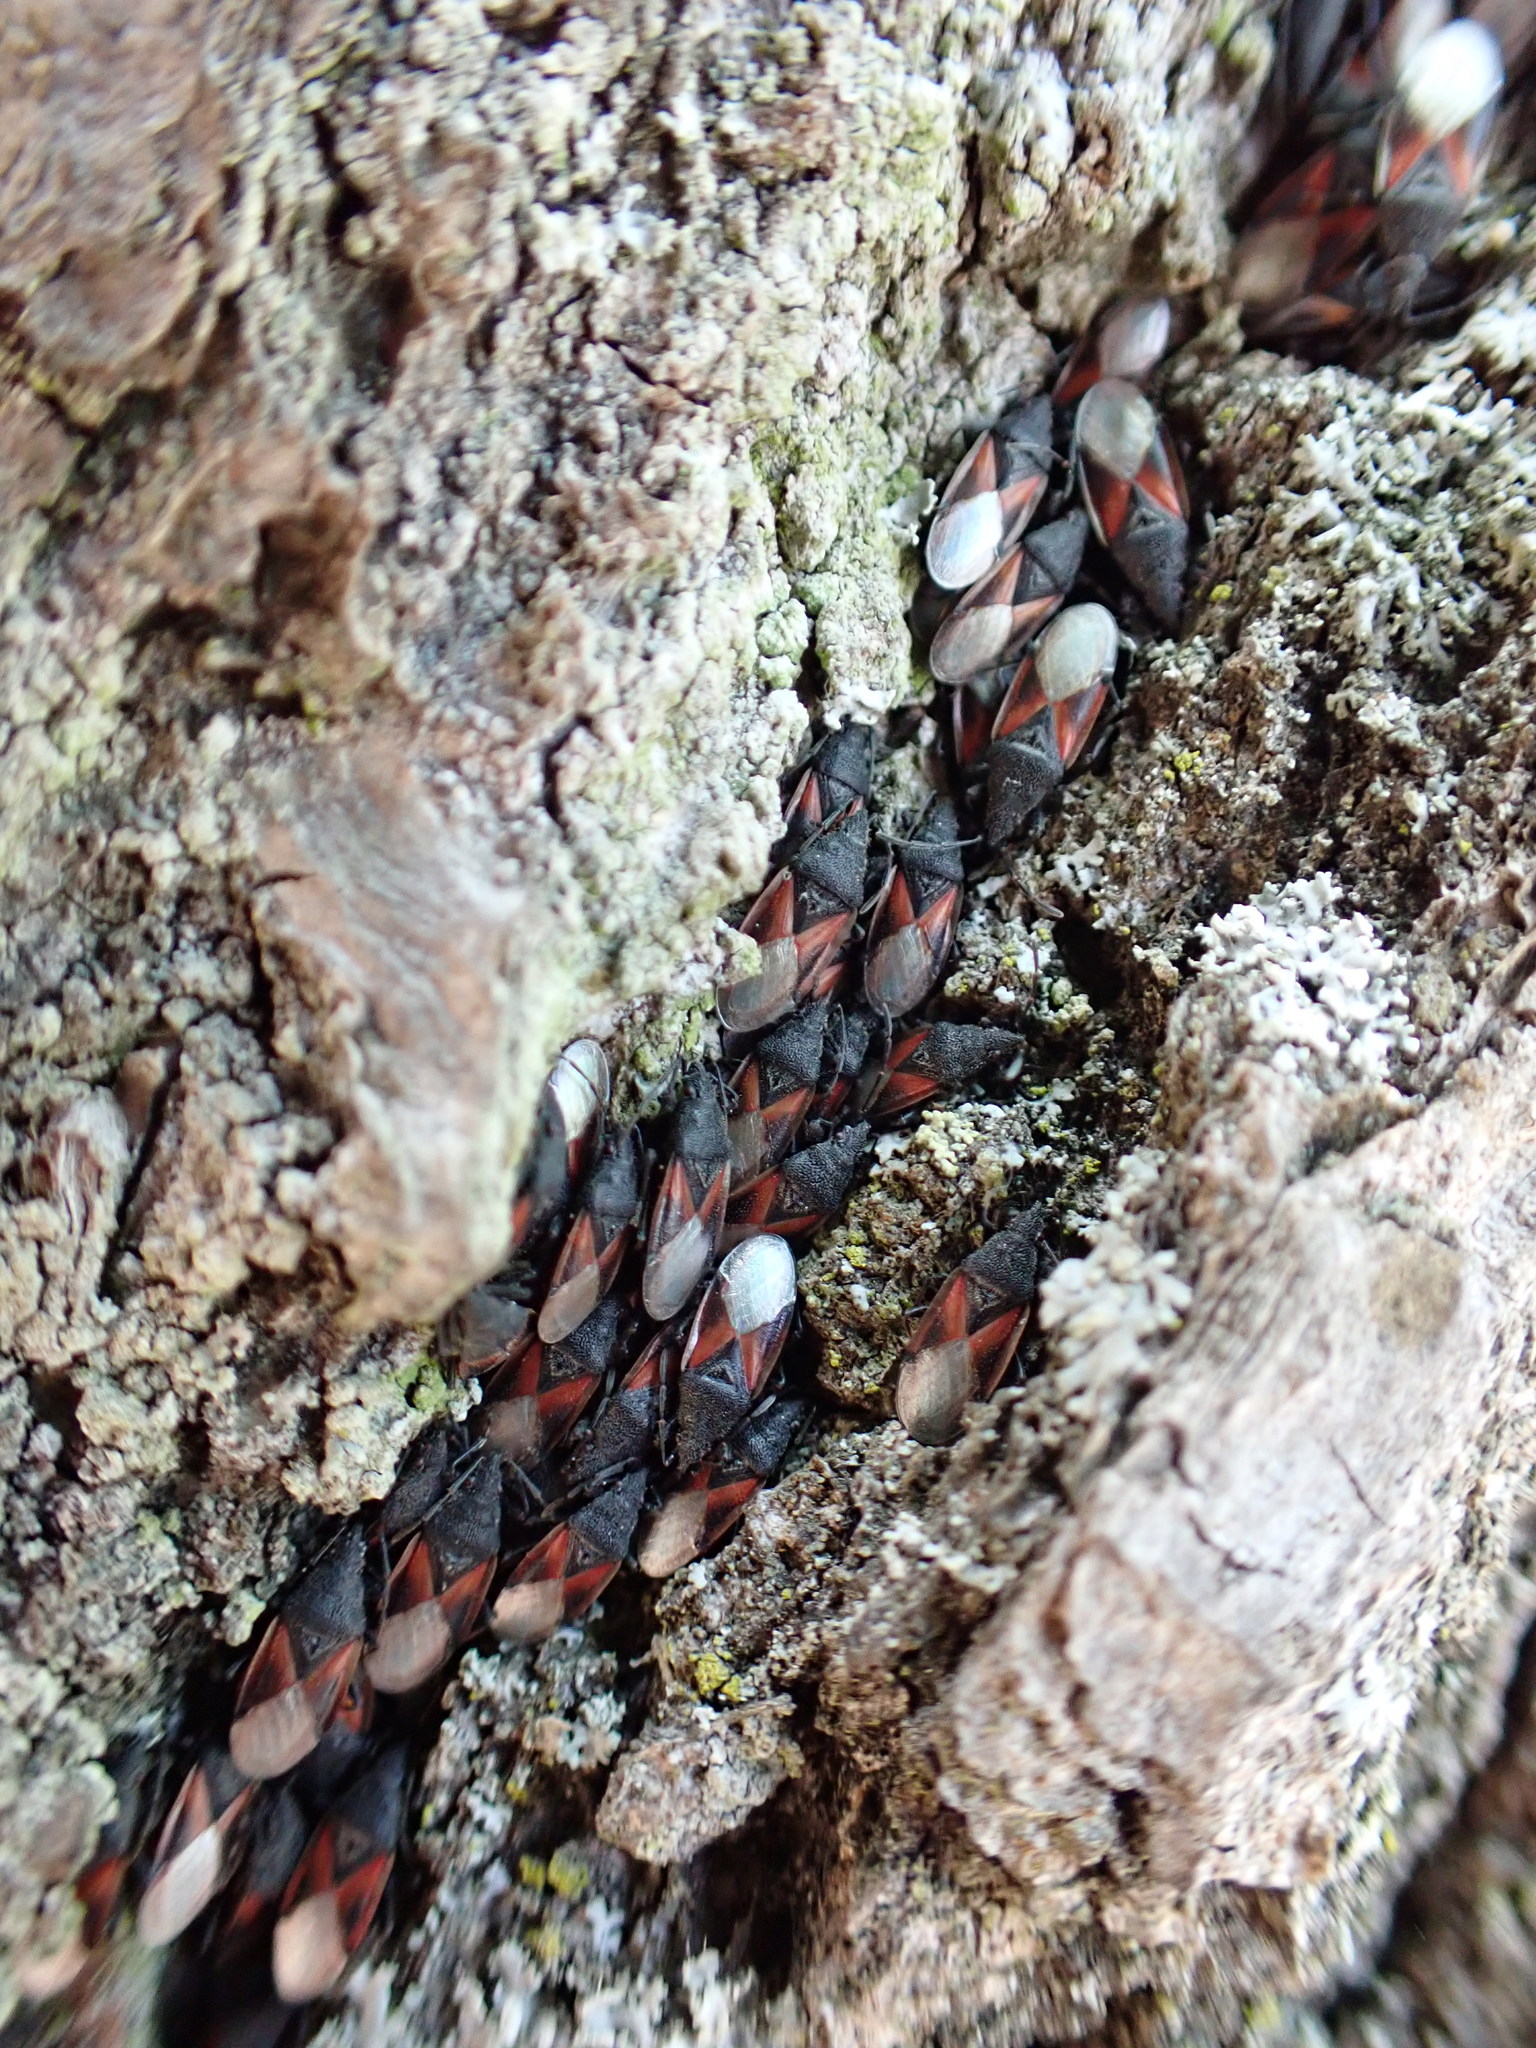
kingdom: Animalia
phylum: Arthropoda
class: Insecta
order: Hemiptera
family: Oxycarenidae
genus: Oxycarenus
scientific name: Oxycarenus lavaterae
